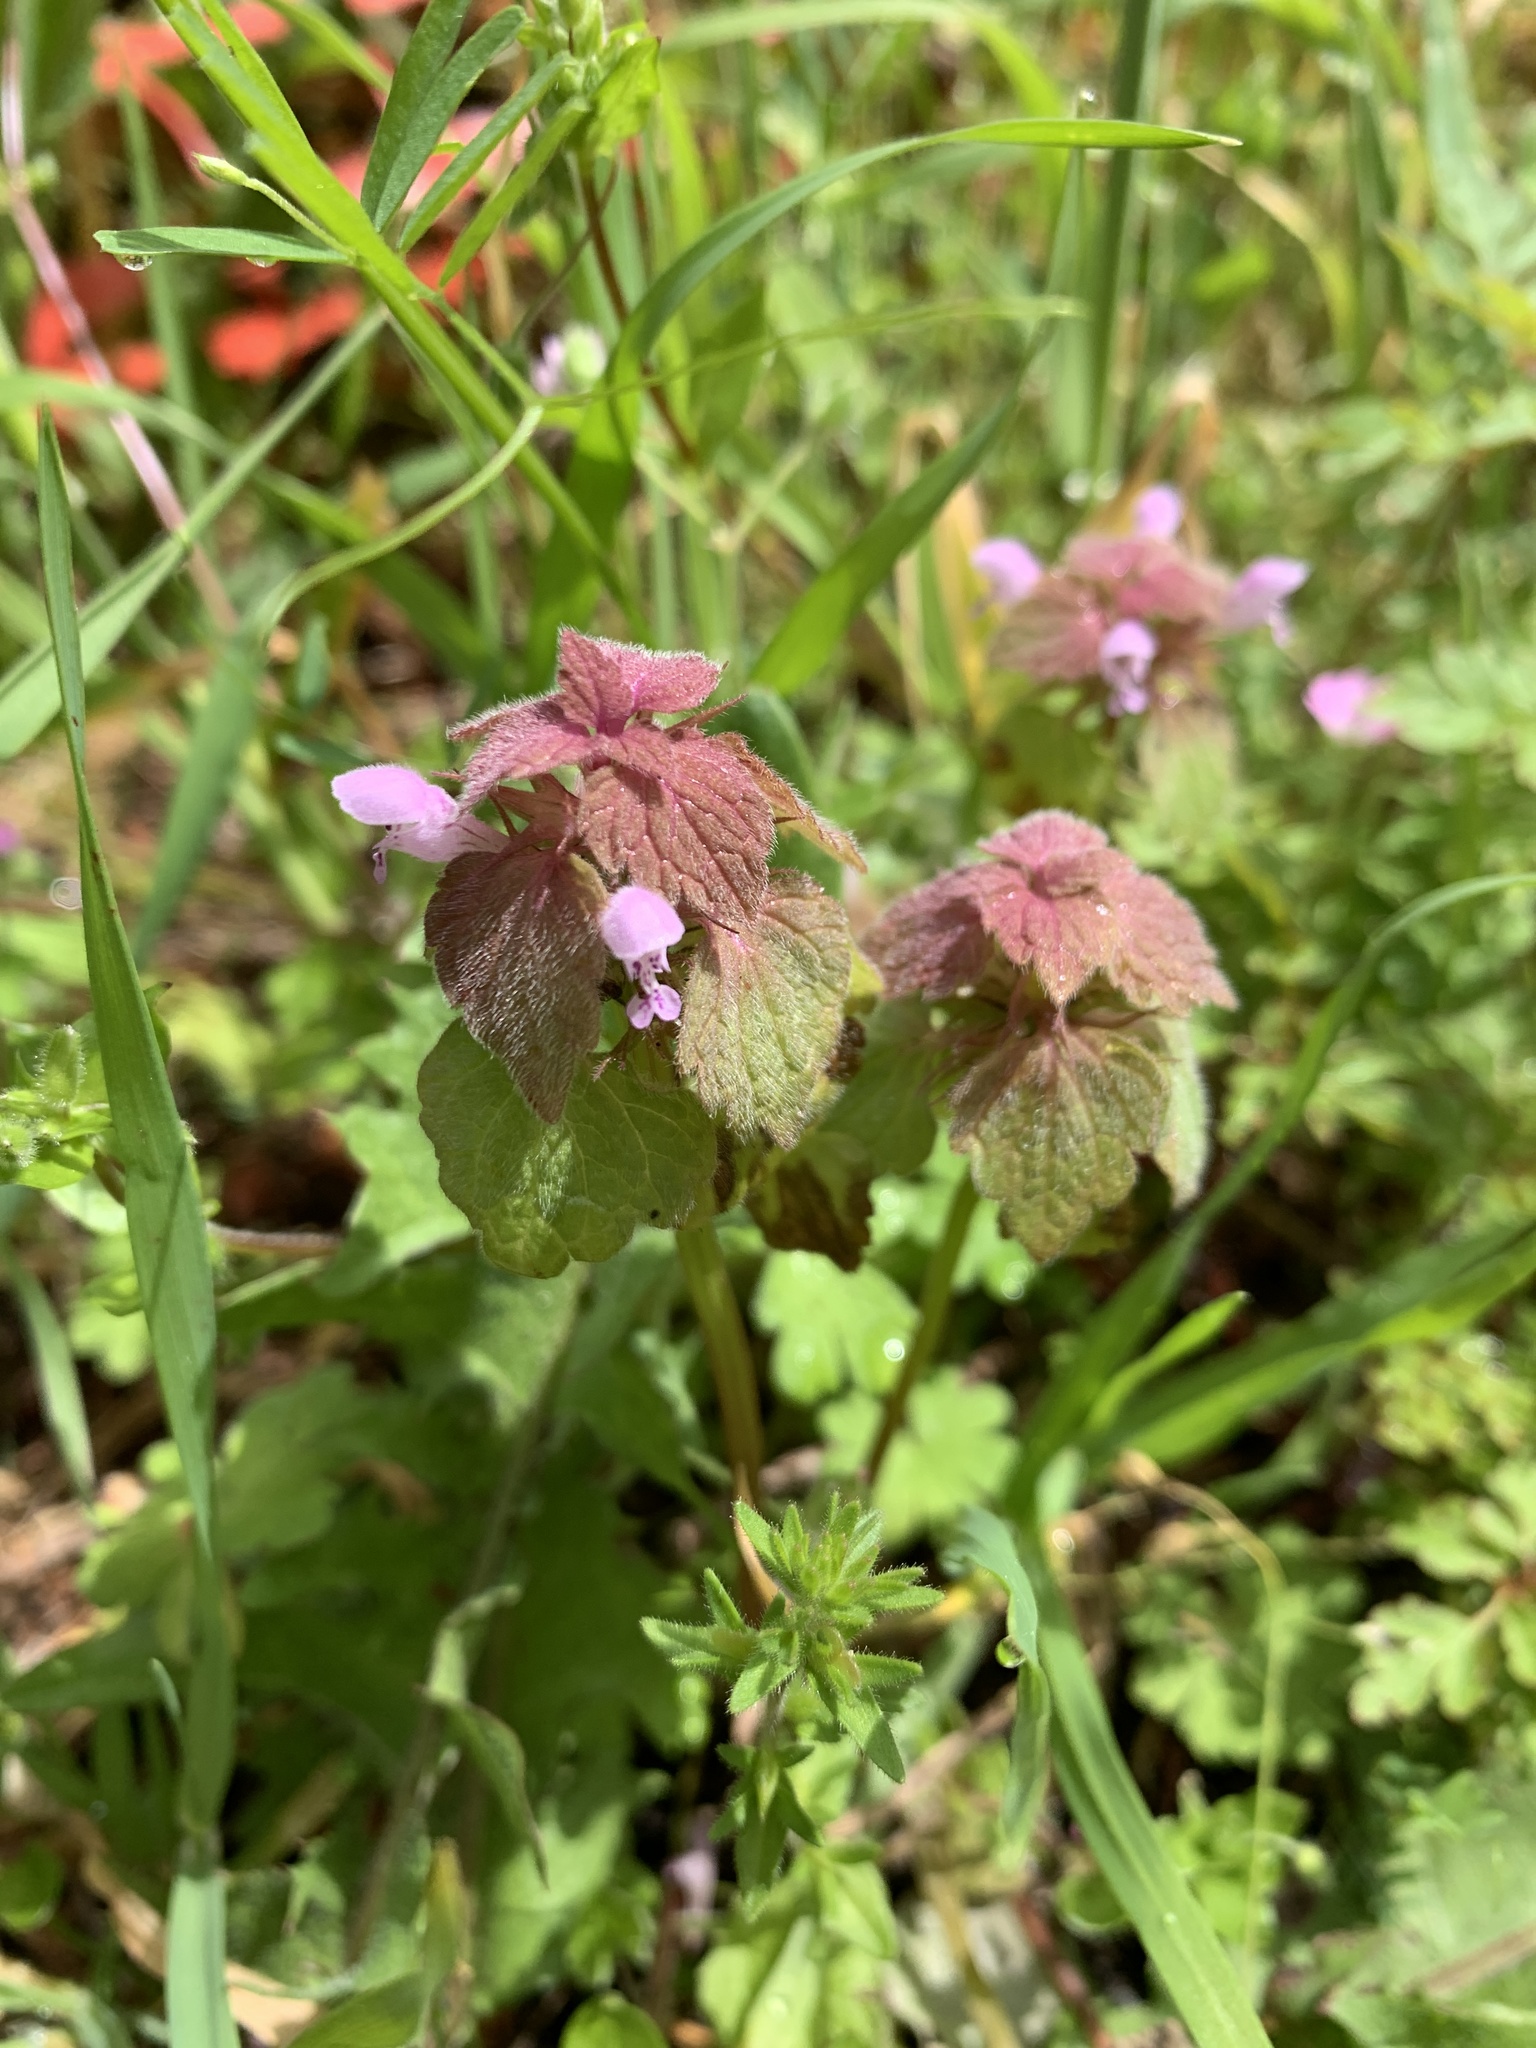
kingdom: Plantae
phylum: Tracheophyta
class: Magnoliopsida
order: Lamiales
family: Lamiaceae
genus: Lamium
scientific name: Lamium purpureum
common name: Red dead-nettle
